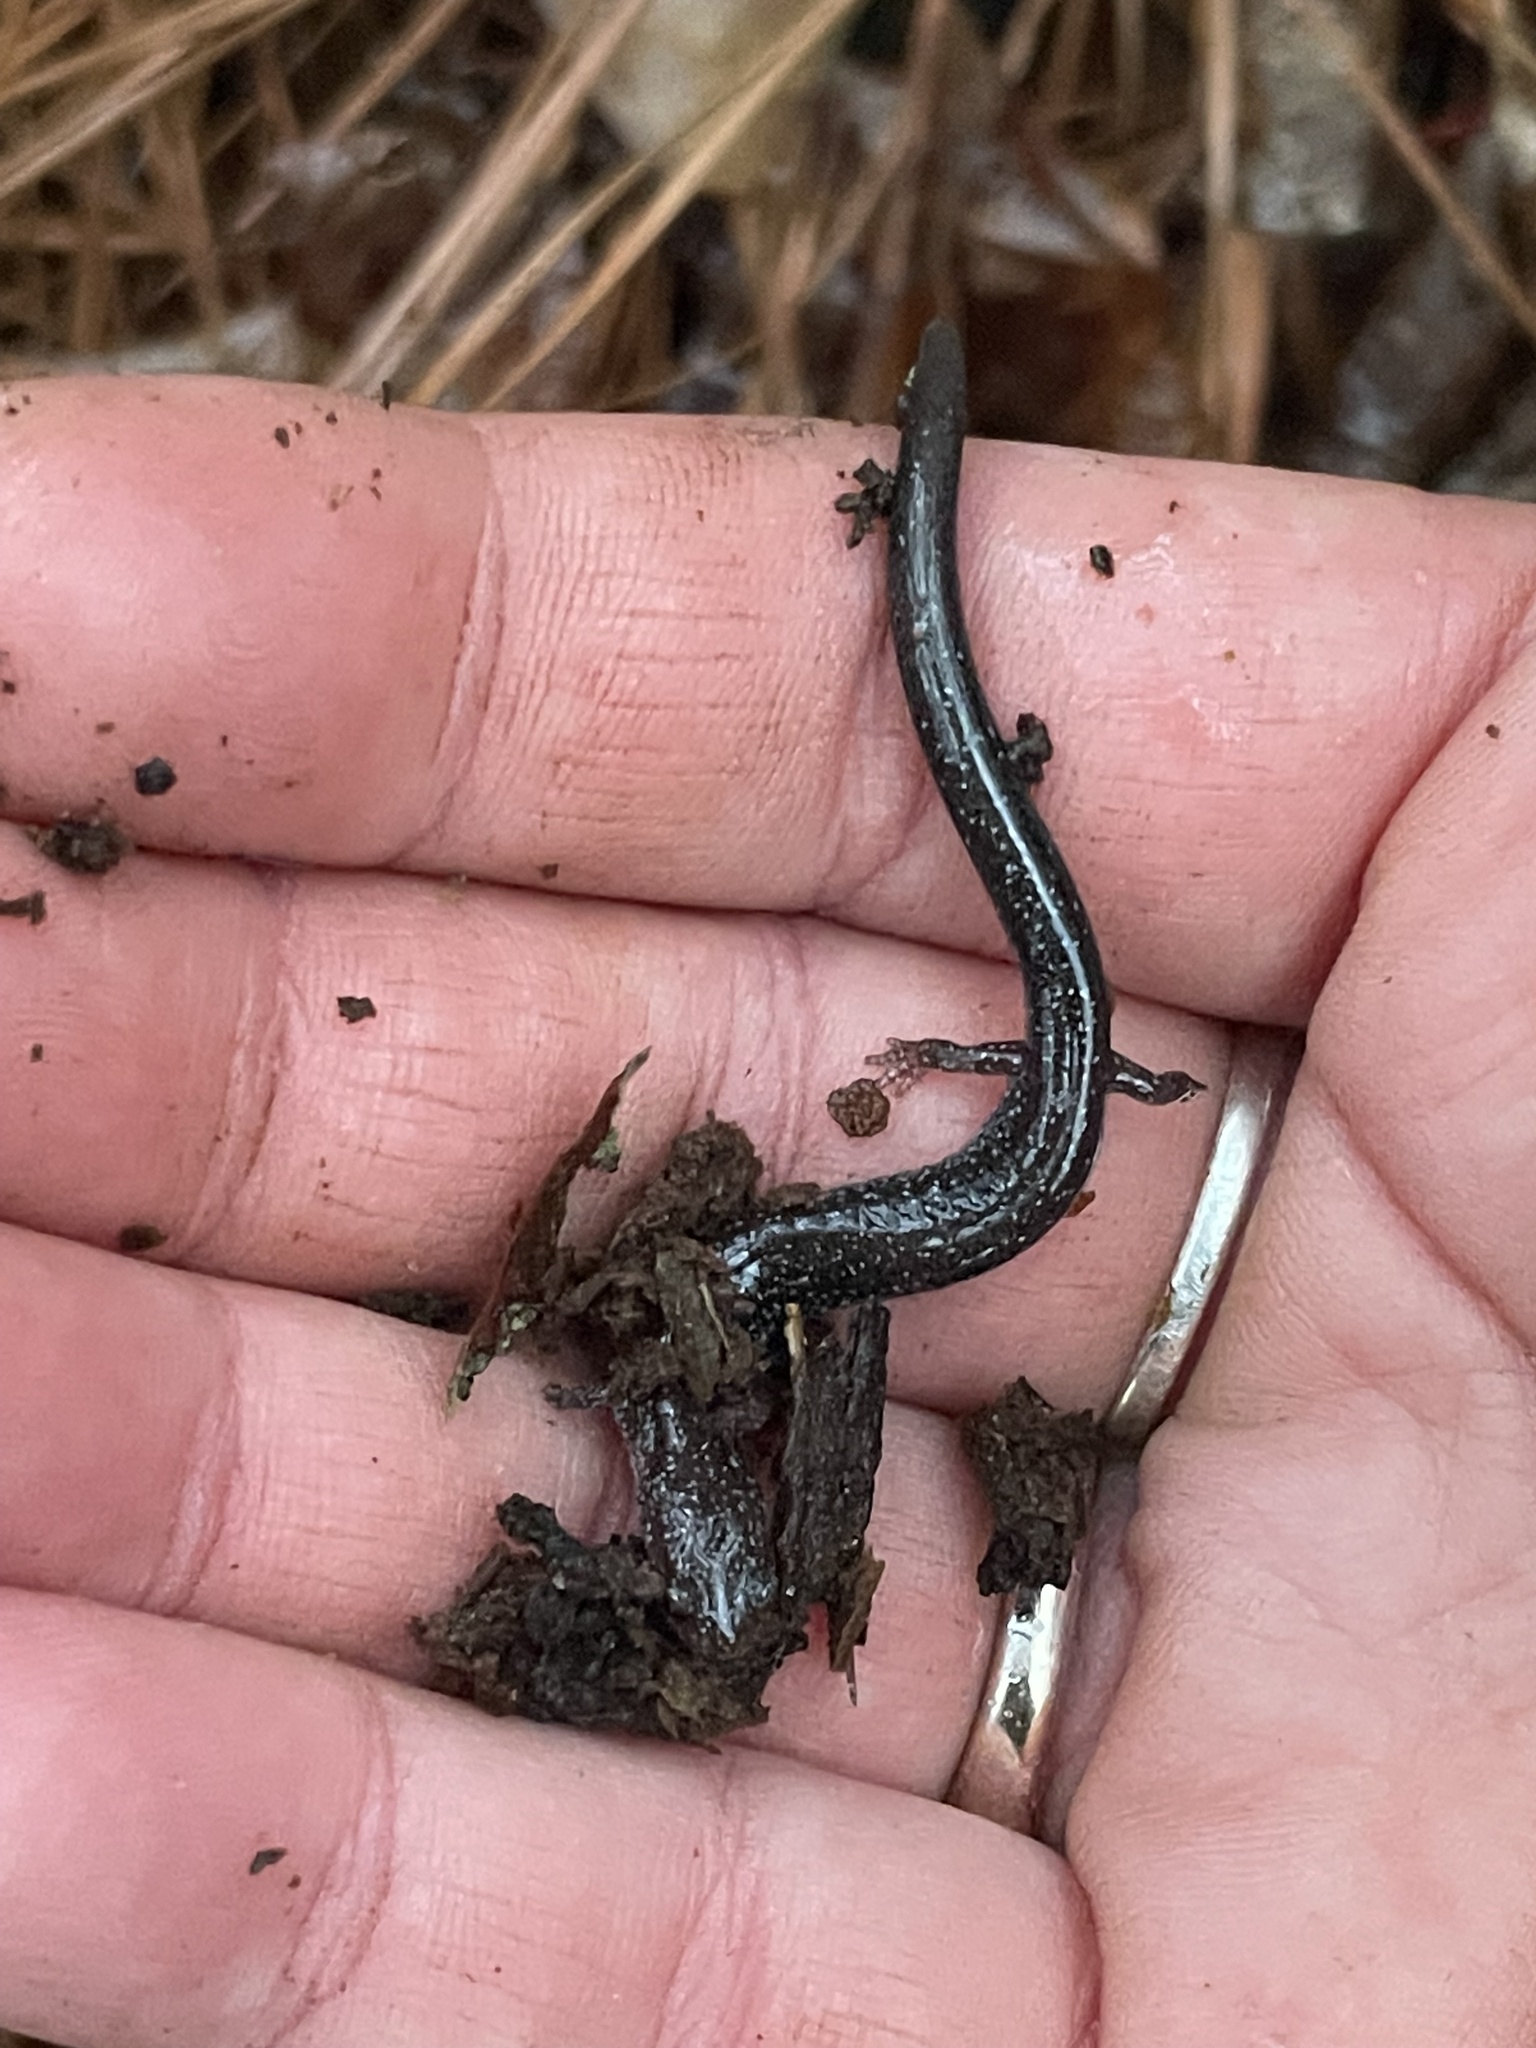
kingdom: Animalia
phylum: Chordata
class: Amphibia
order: Caudata
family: Plethodontidae
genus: Plethodon
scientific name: Plethodon cinereus
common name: Redback salamander
